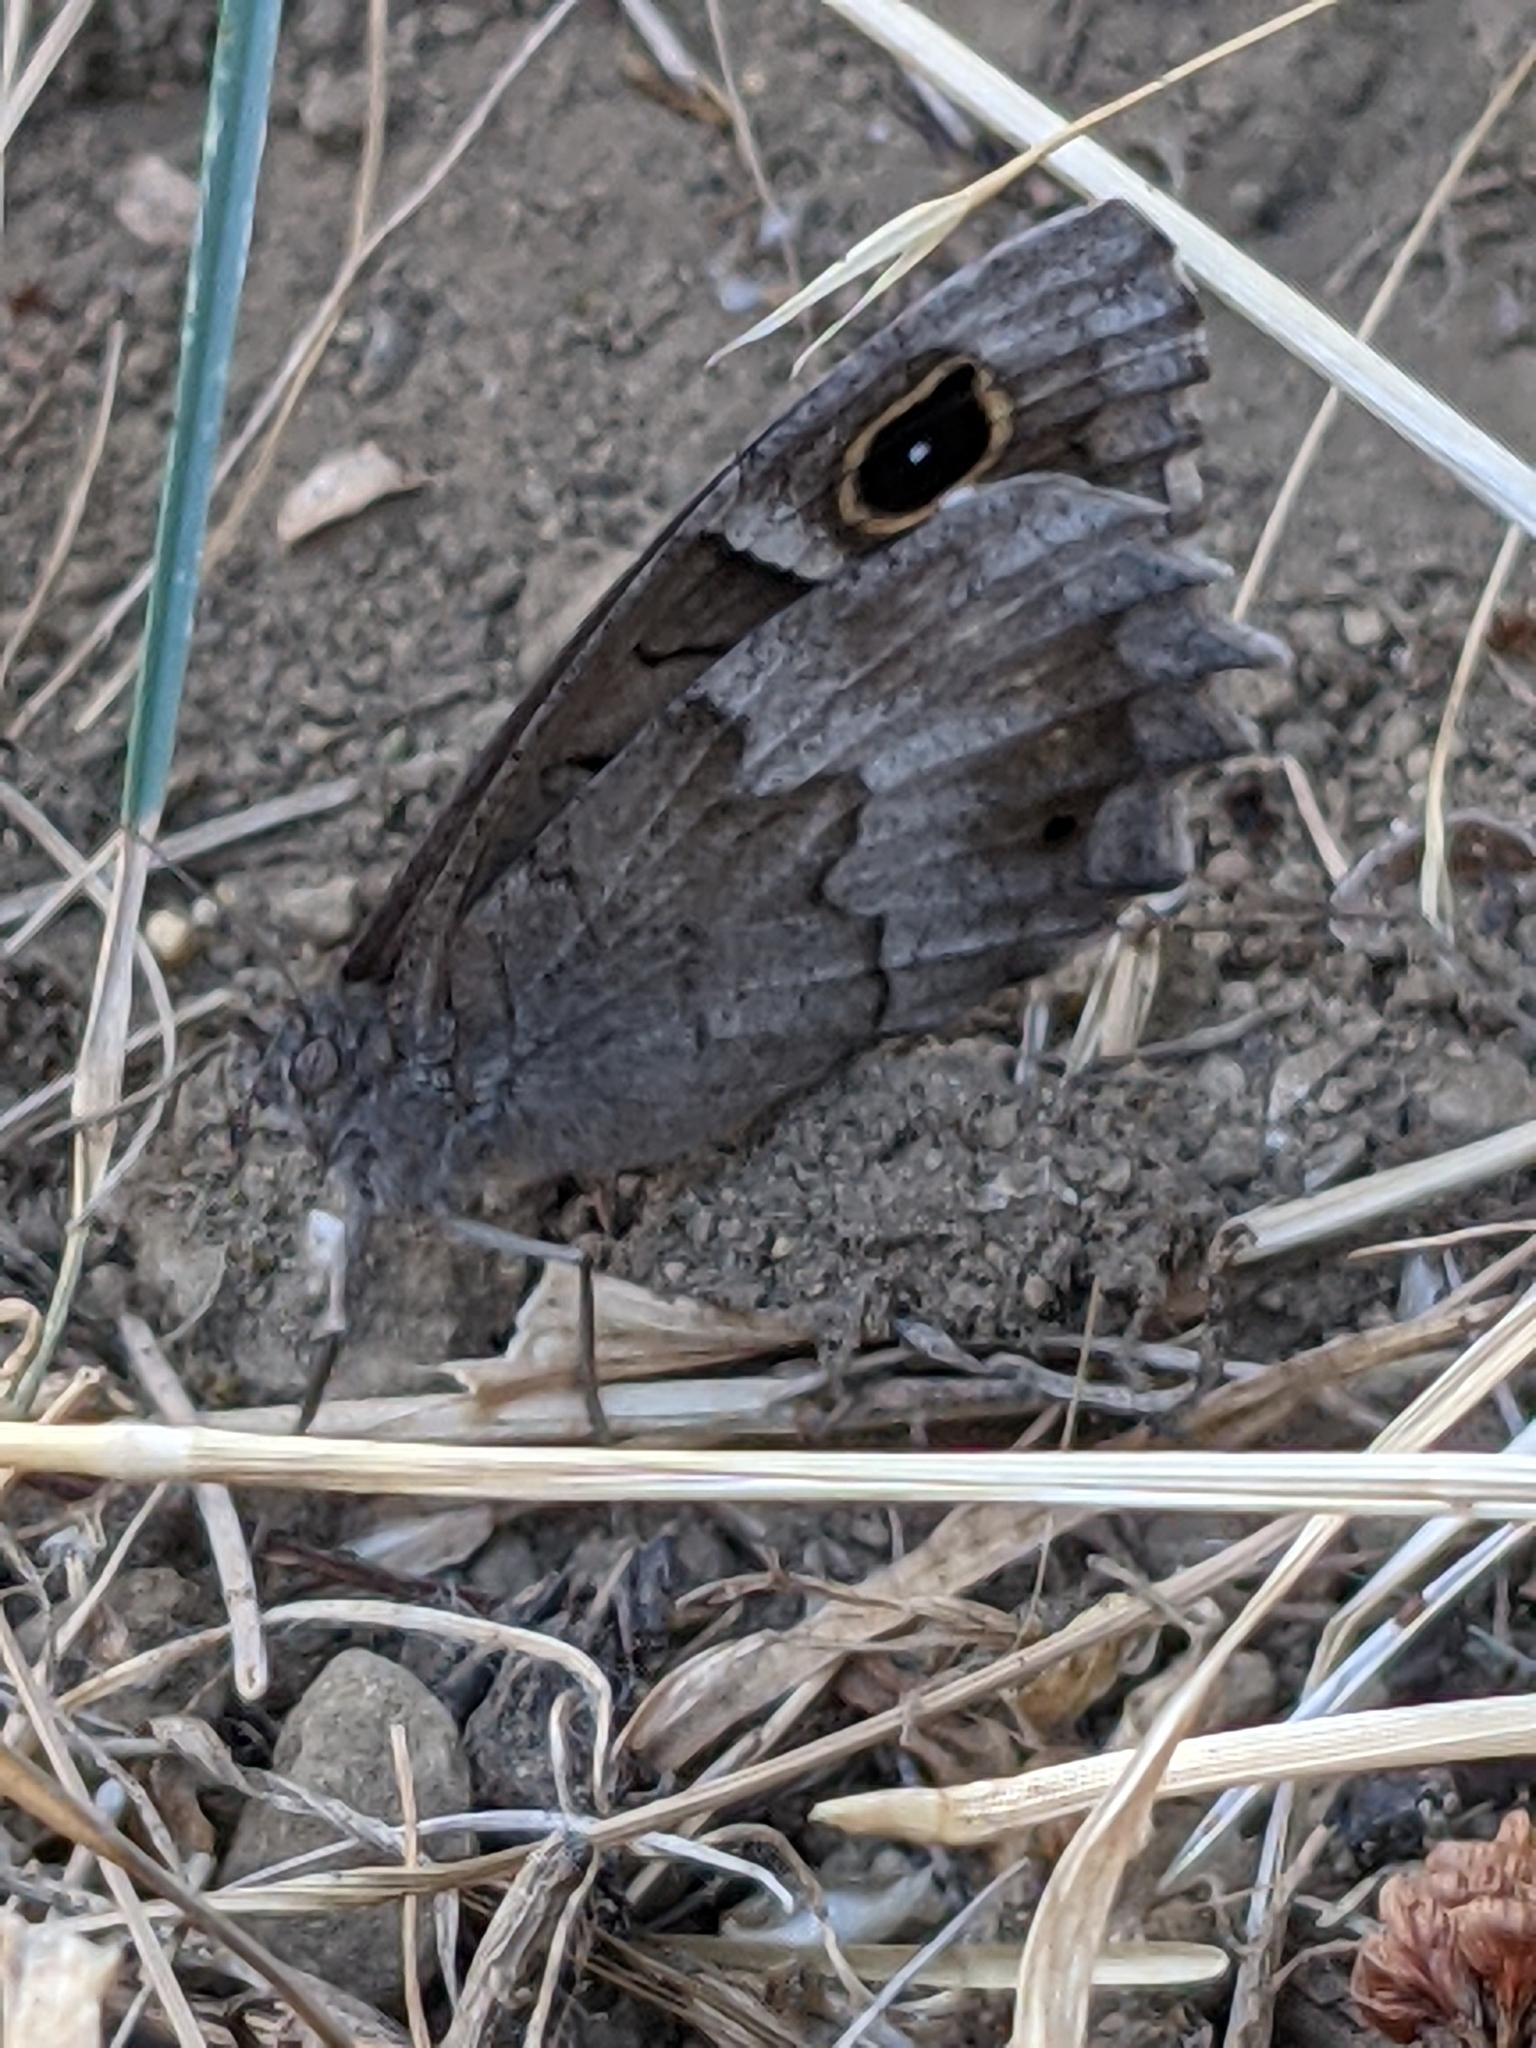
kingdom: Animalia
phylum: Arthropoda
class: Insecta
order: Lepidoptera
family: Nymphalidae
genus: Hipparchia
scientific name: Hipparchia statilinus
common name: Tree grayling
